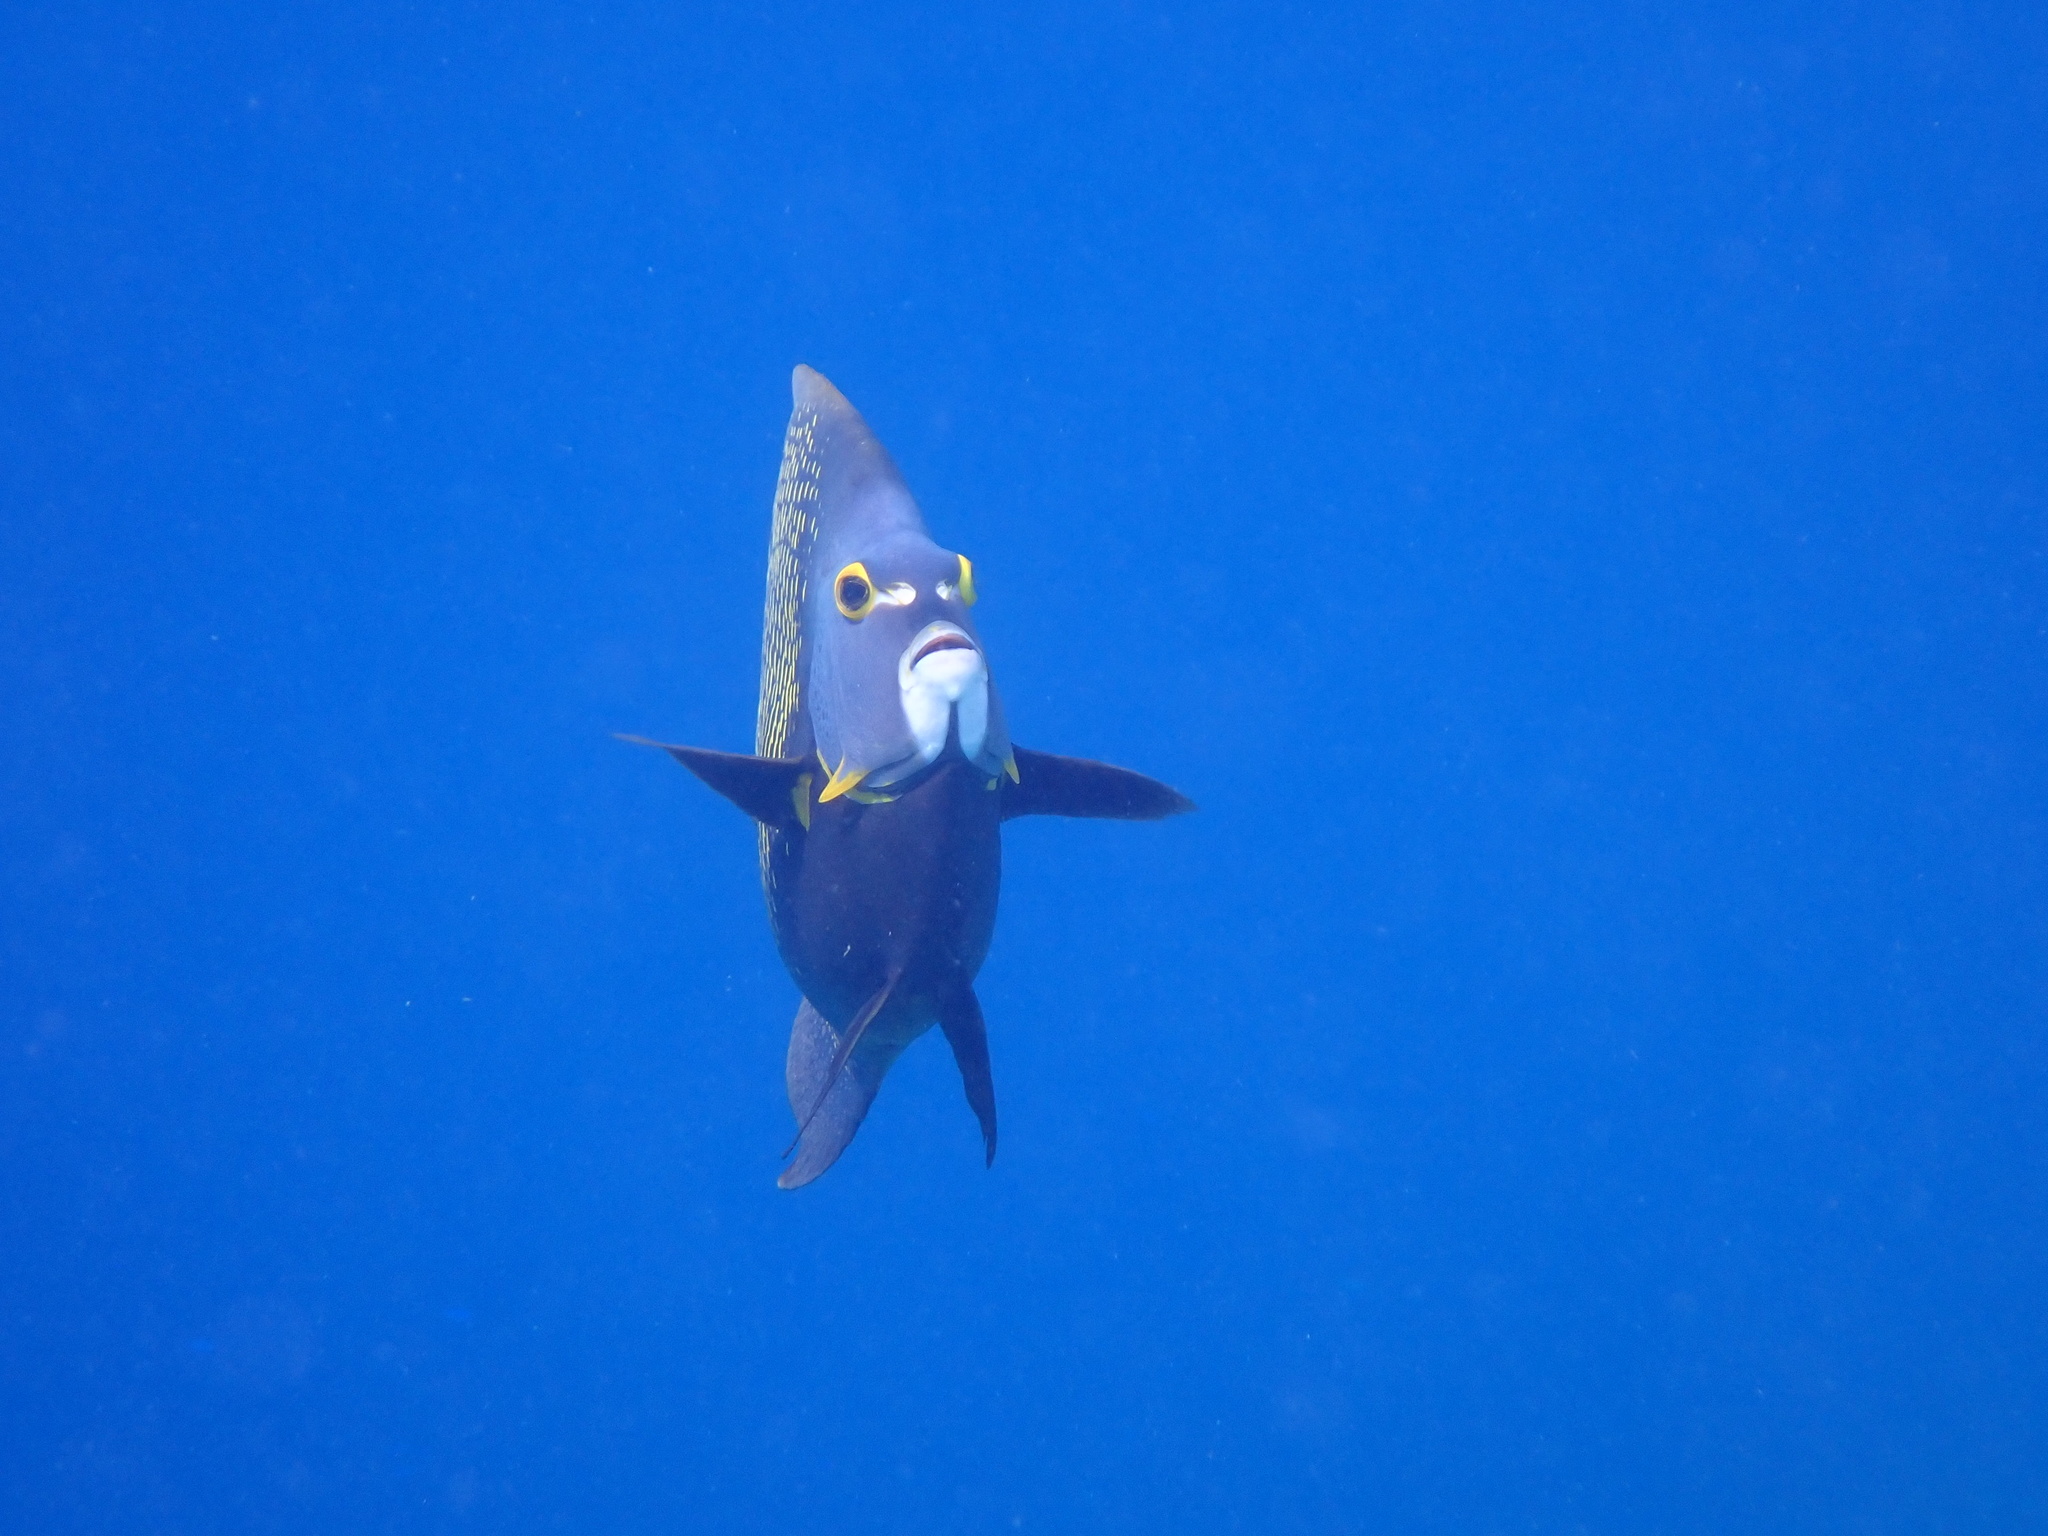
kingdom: Animalia
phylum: Chordata
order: Perciformes
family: Pomacanthidae
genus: Pomacanthus
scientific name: Pomacanthus paru
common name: French angelfish
